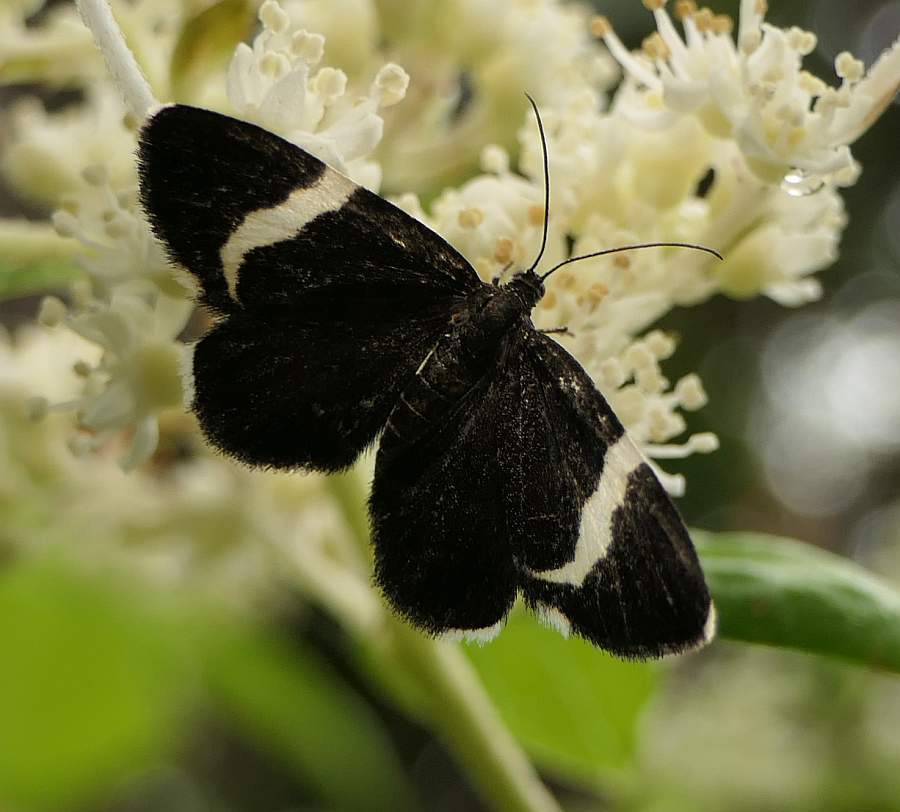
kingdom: Animalia
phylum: Arthropoda
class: Insecta
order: Lepidoptera
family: Geometridae
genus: Trichodezia
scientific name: Trichodezia albovittata
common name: White striped black
